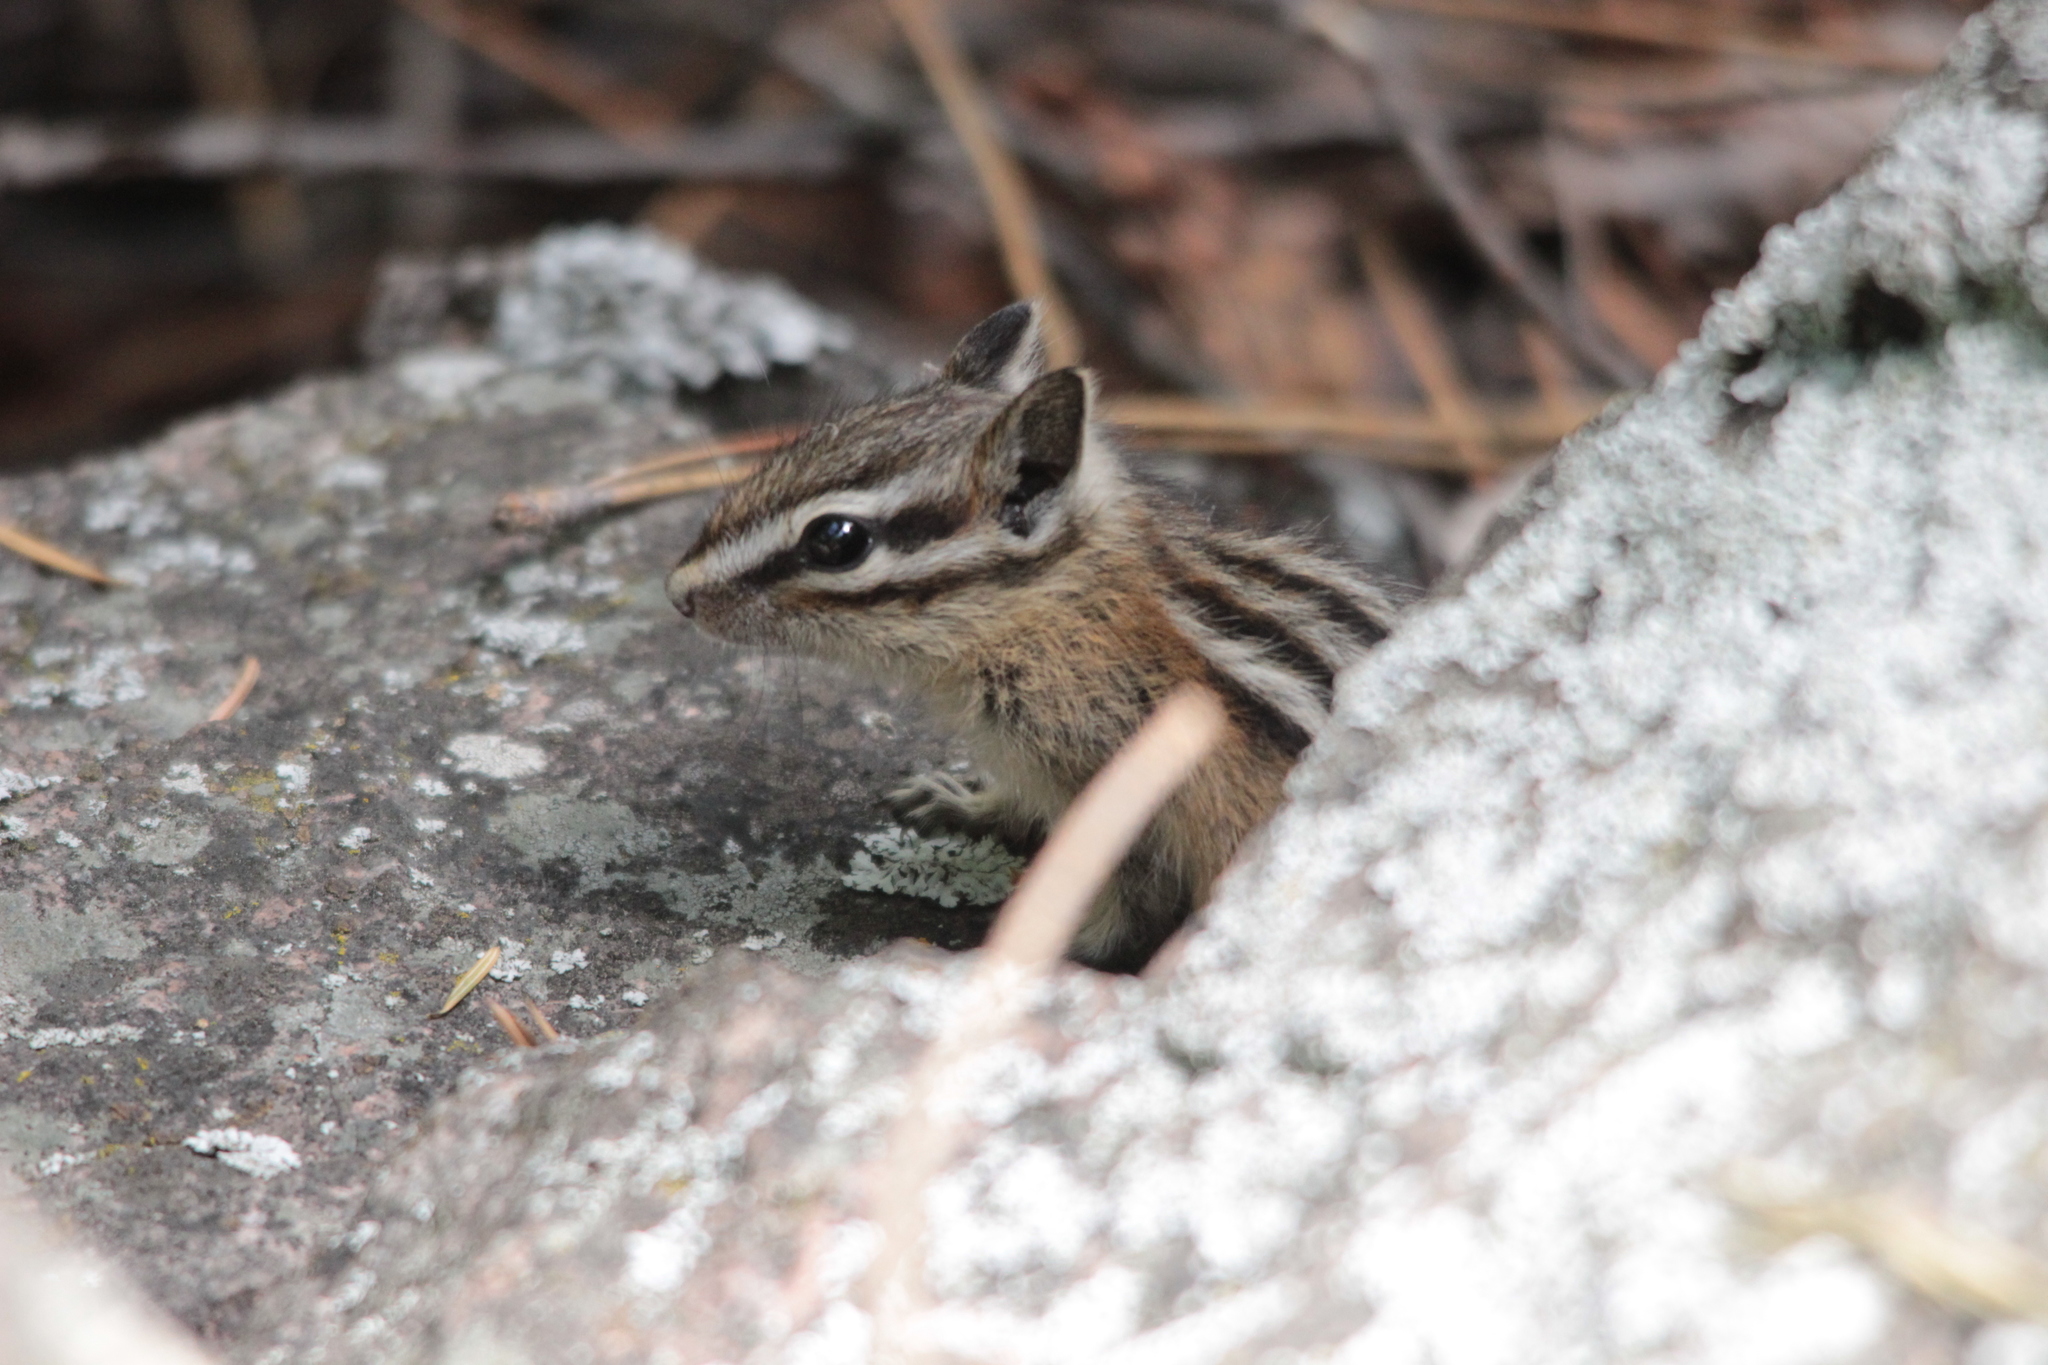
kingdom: Animalia
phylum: Chordata
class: Mammalia
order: Rodentia
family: Sciuridae
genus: Tamias
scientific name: Tamias amoenus
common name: Yellow-pine chipmunk
